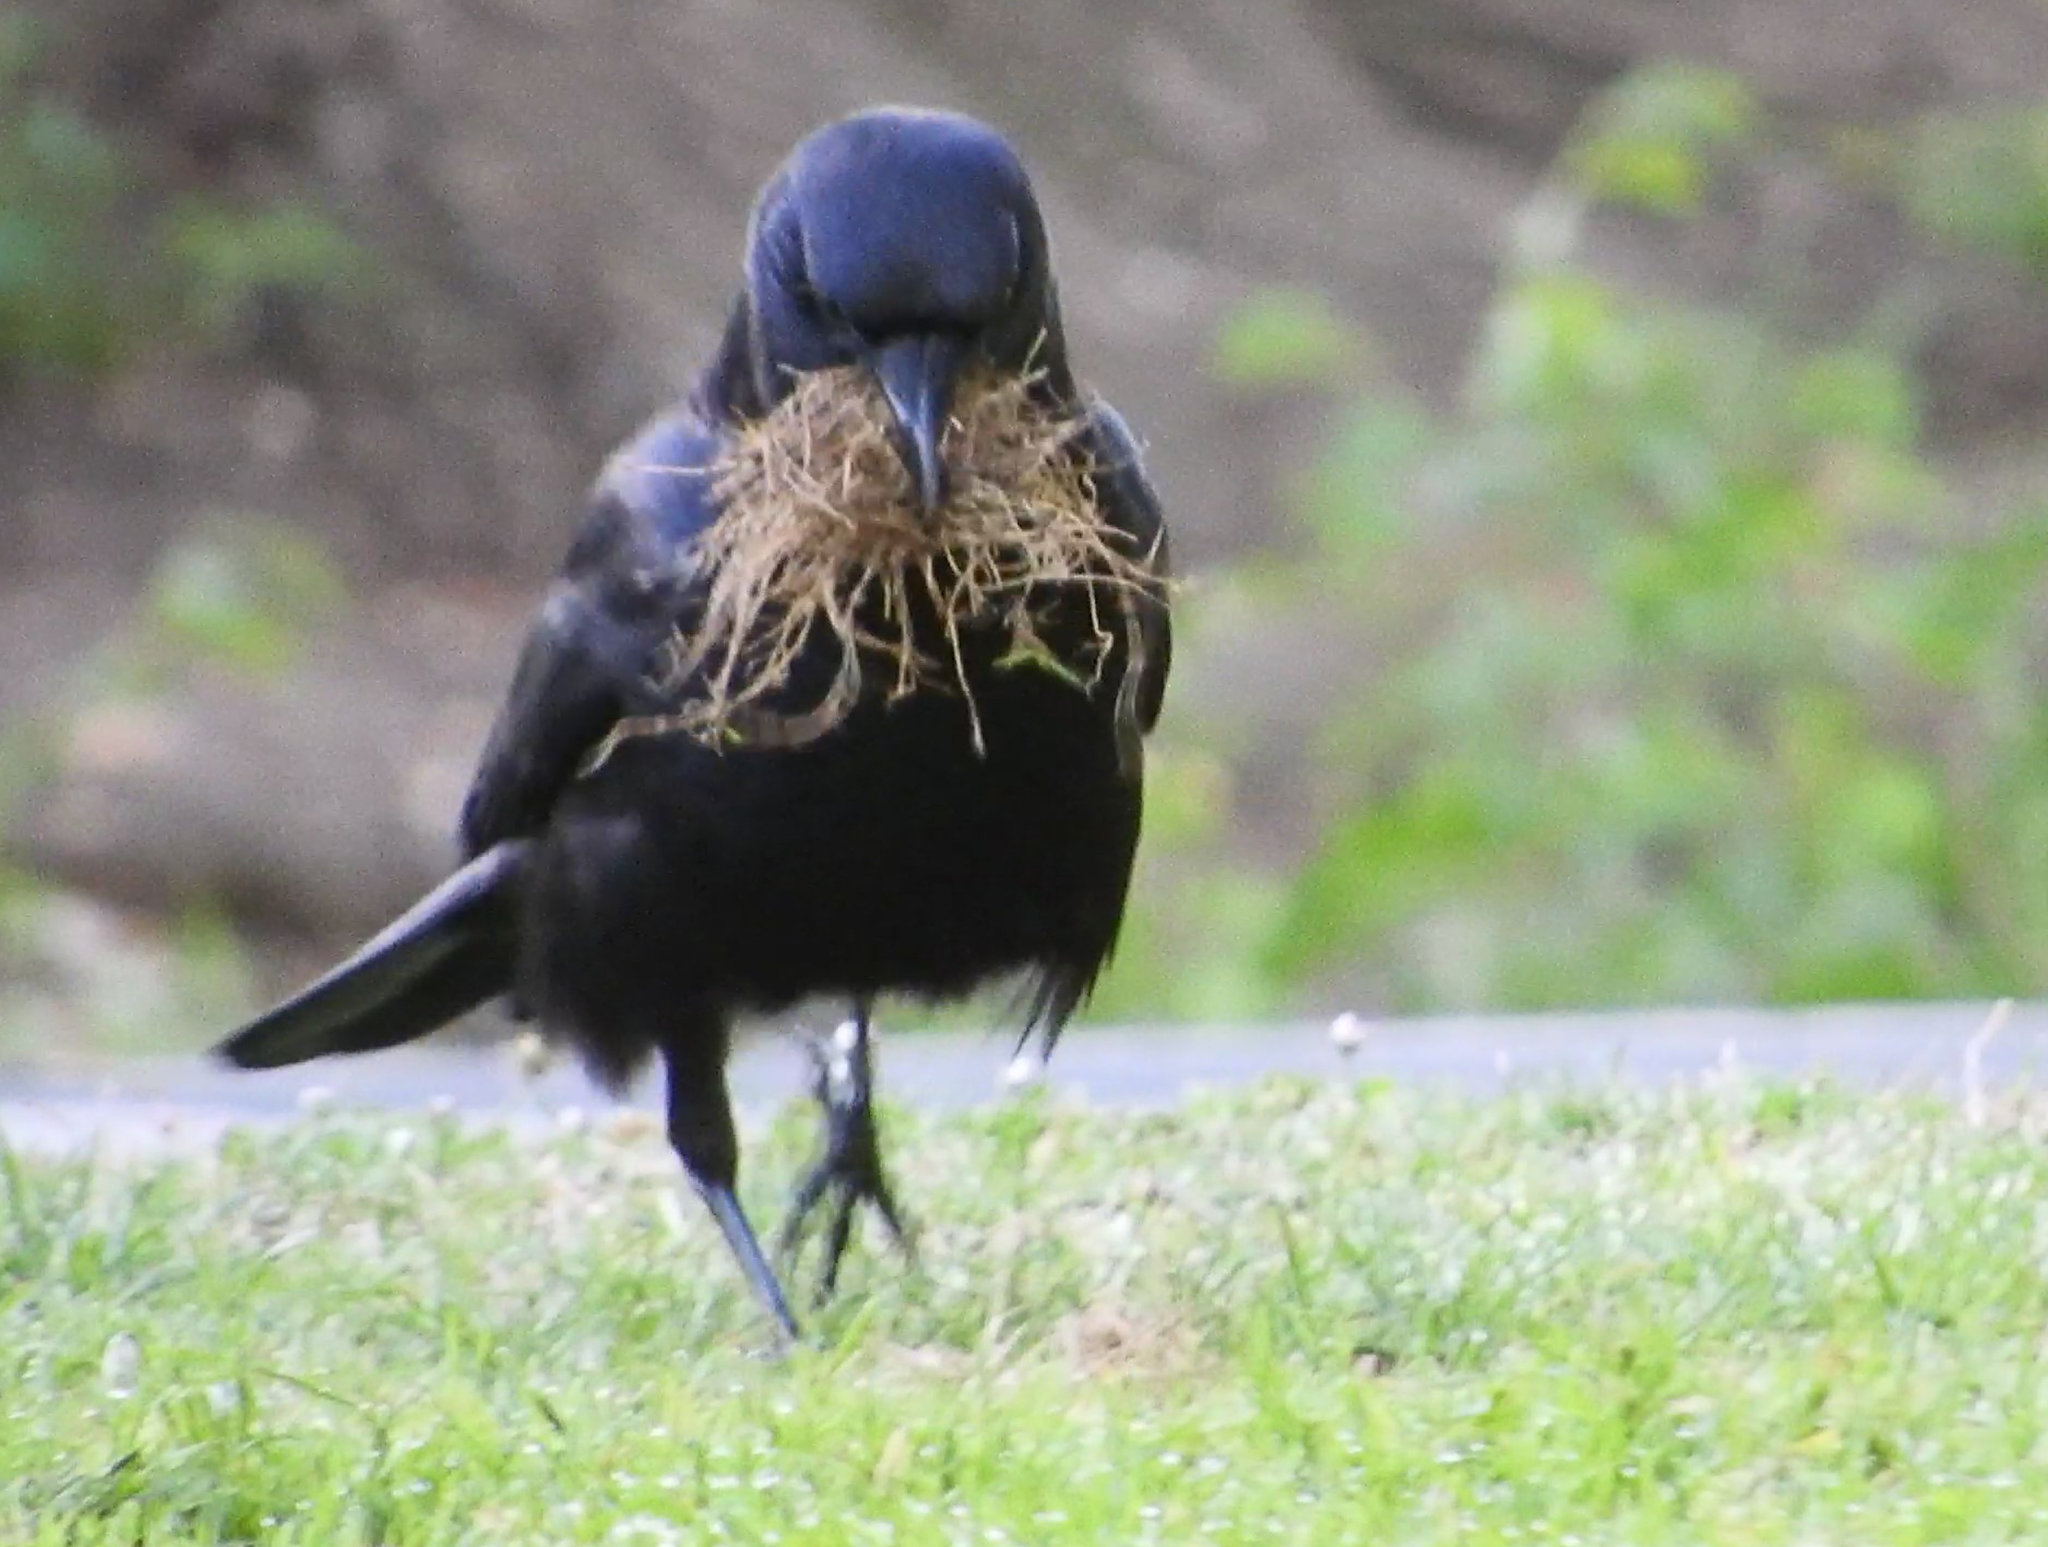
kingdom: Animalia
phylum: Chordata
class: Aves
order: Passeriformes
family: Corvidae
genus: Corvus
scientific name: Corvus brachyrhynchos
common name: American crow
